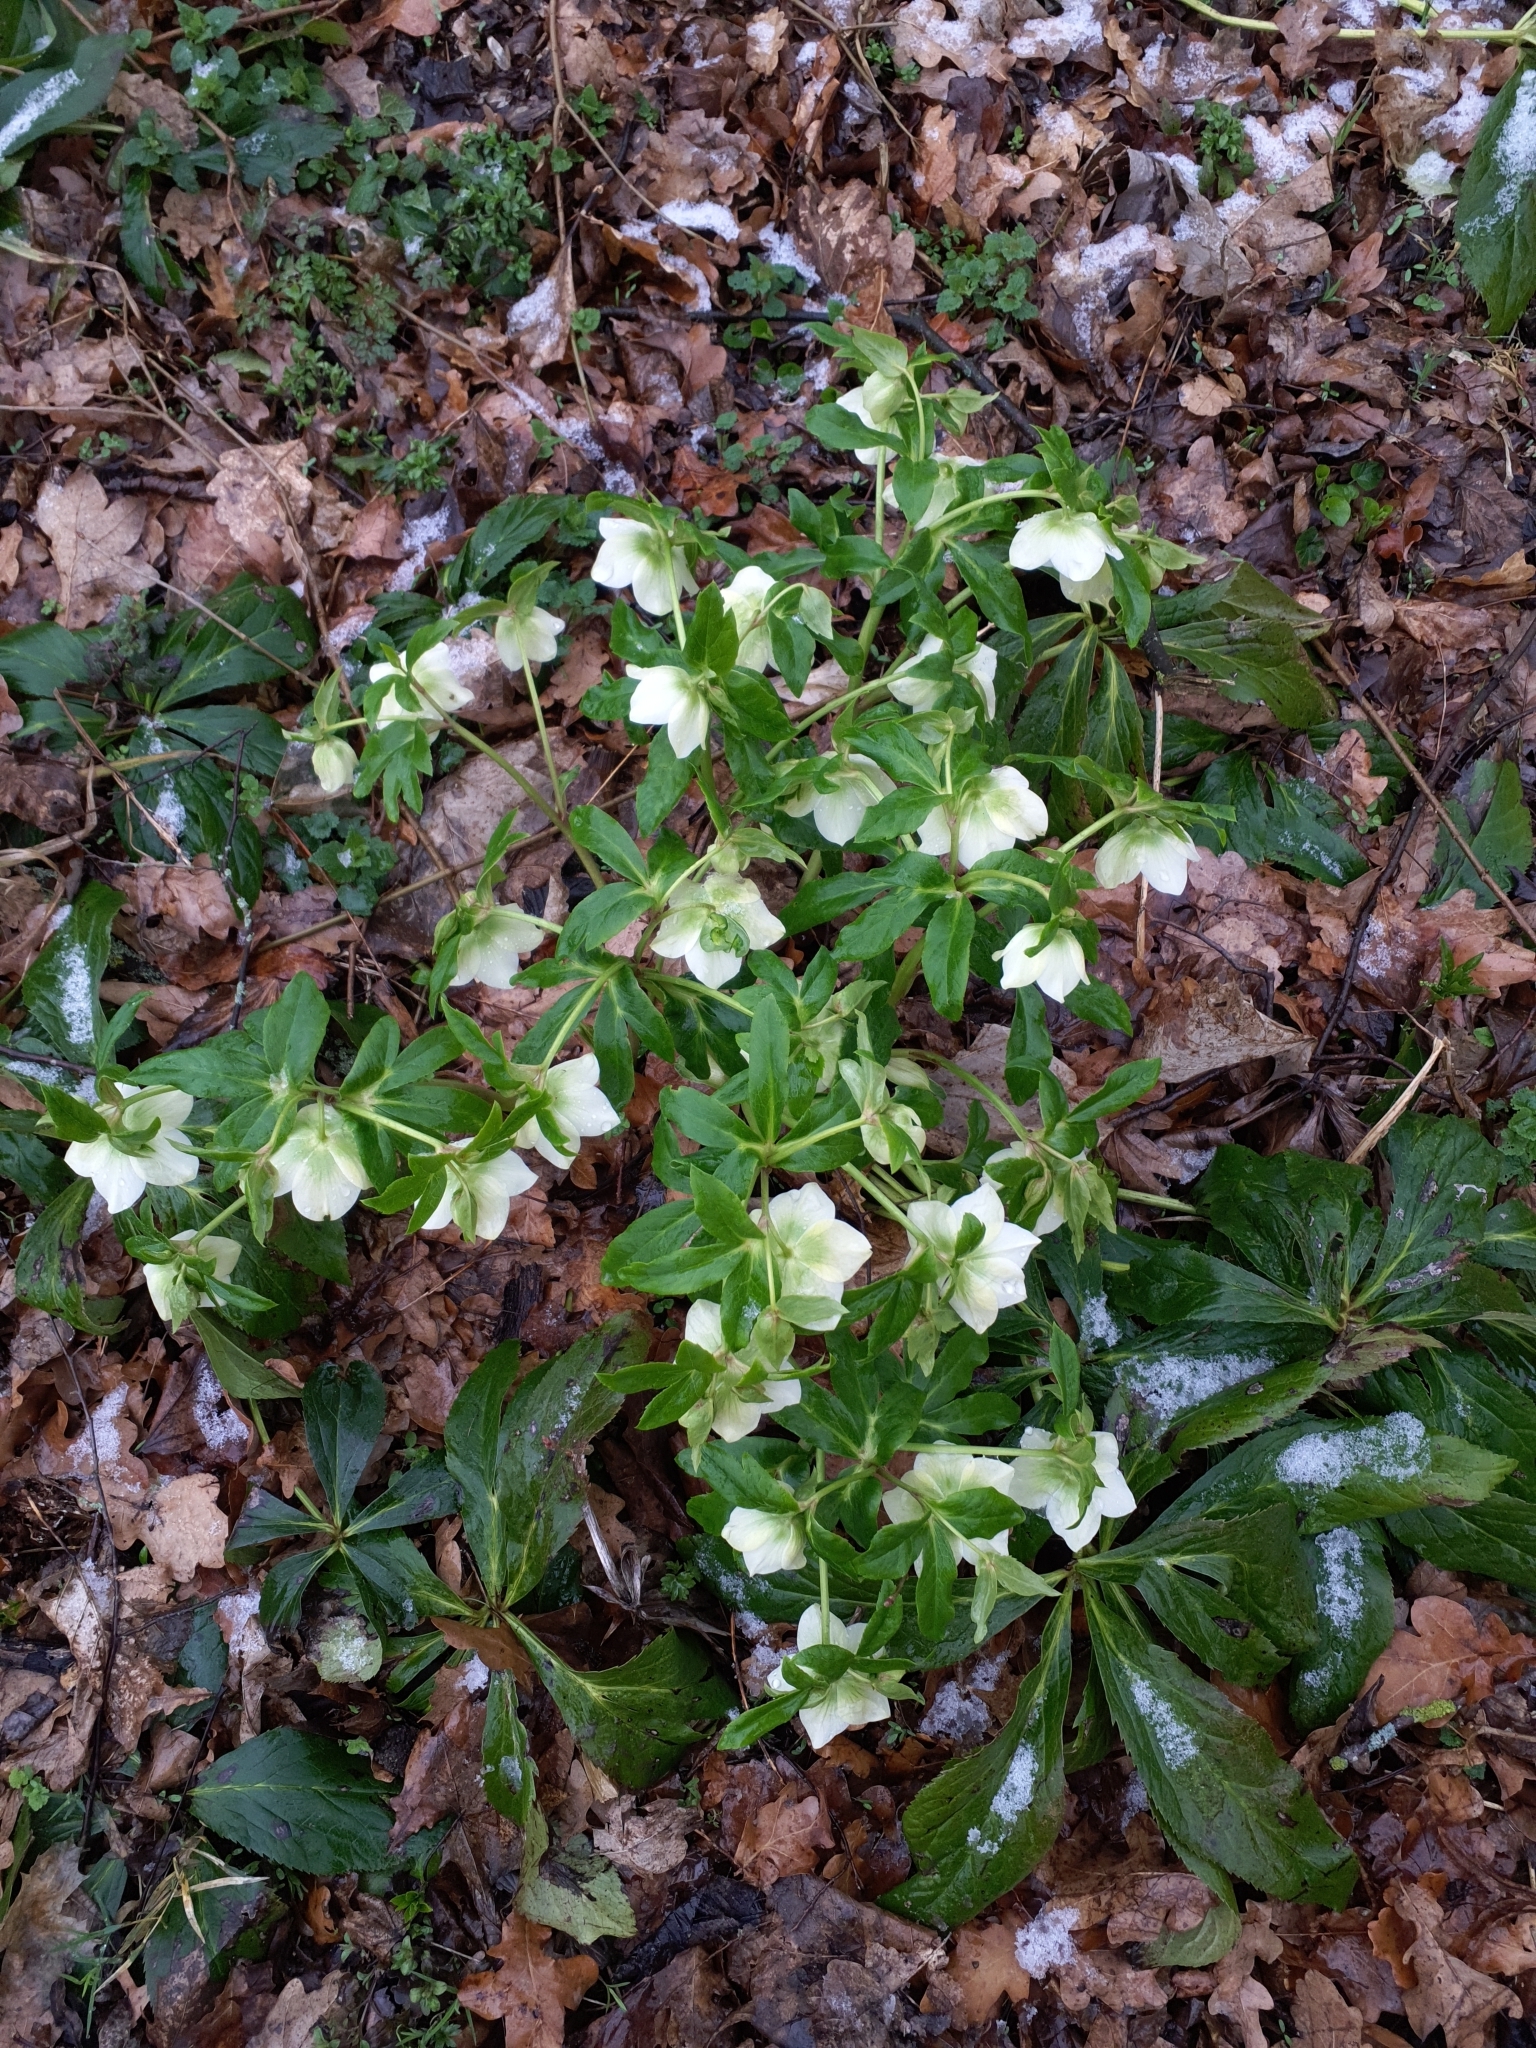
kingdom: Plantae
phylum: Tracheophyta
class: Magnoliopsida
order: Ranunculales
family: Ranunculaceae
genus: Helleborus
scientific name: Helleborus orientalis
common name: Lenten-rose
